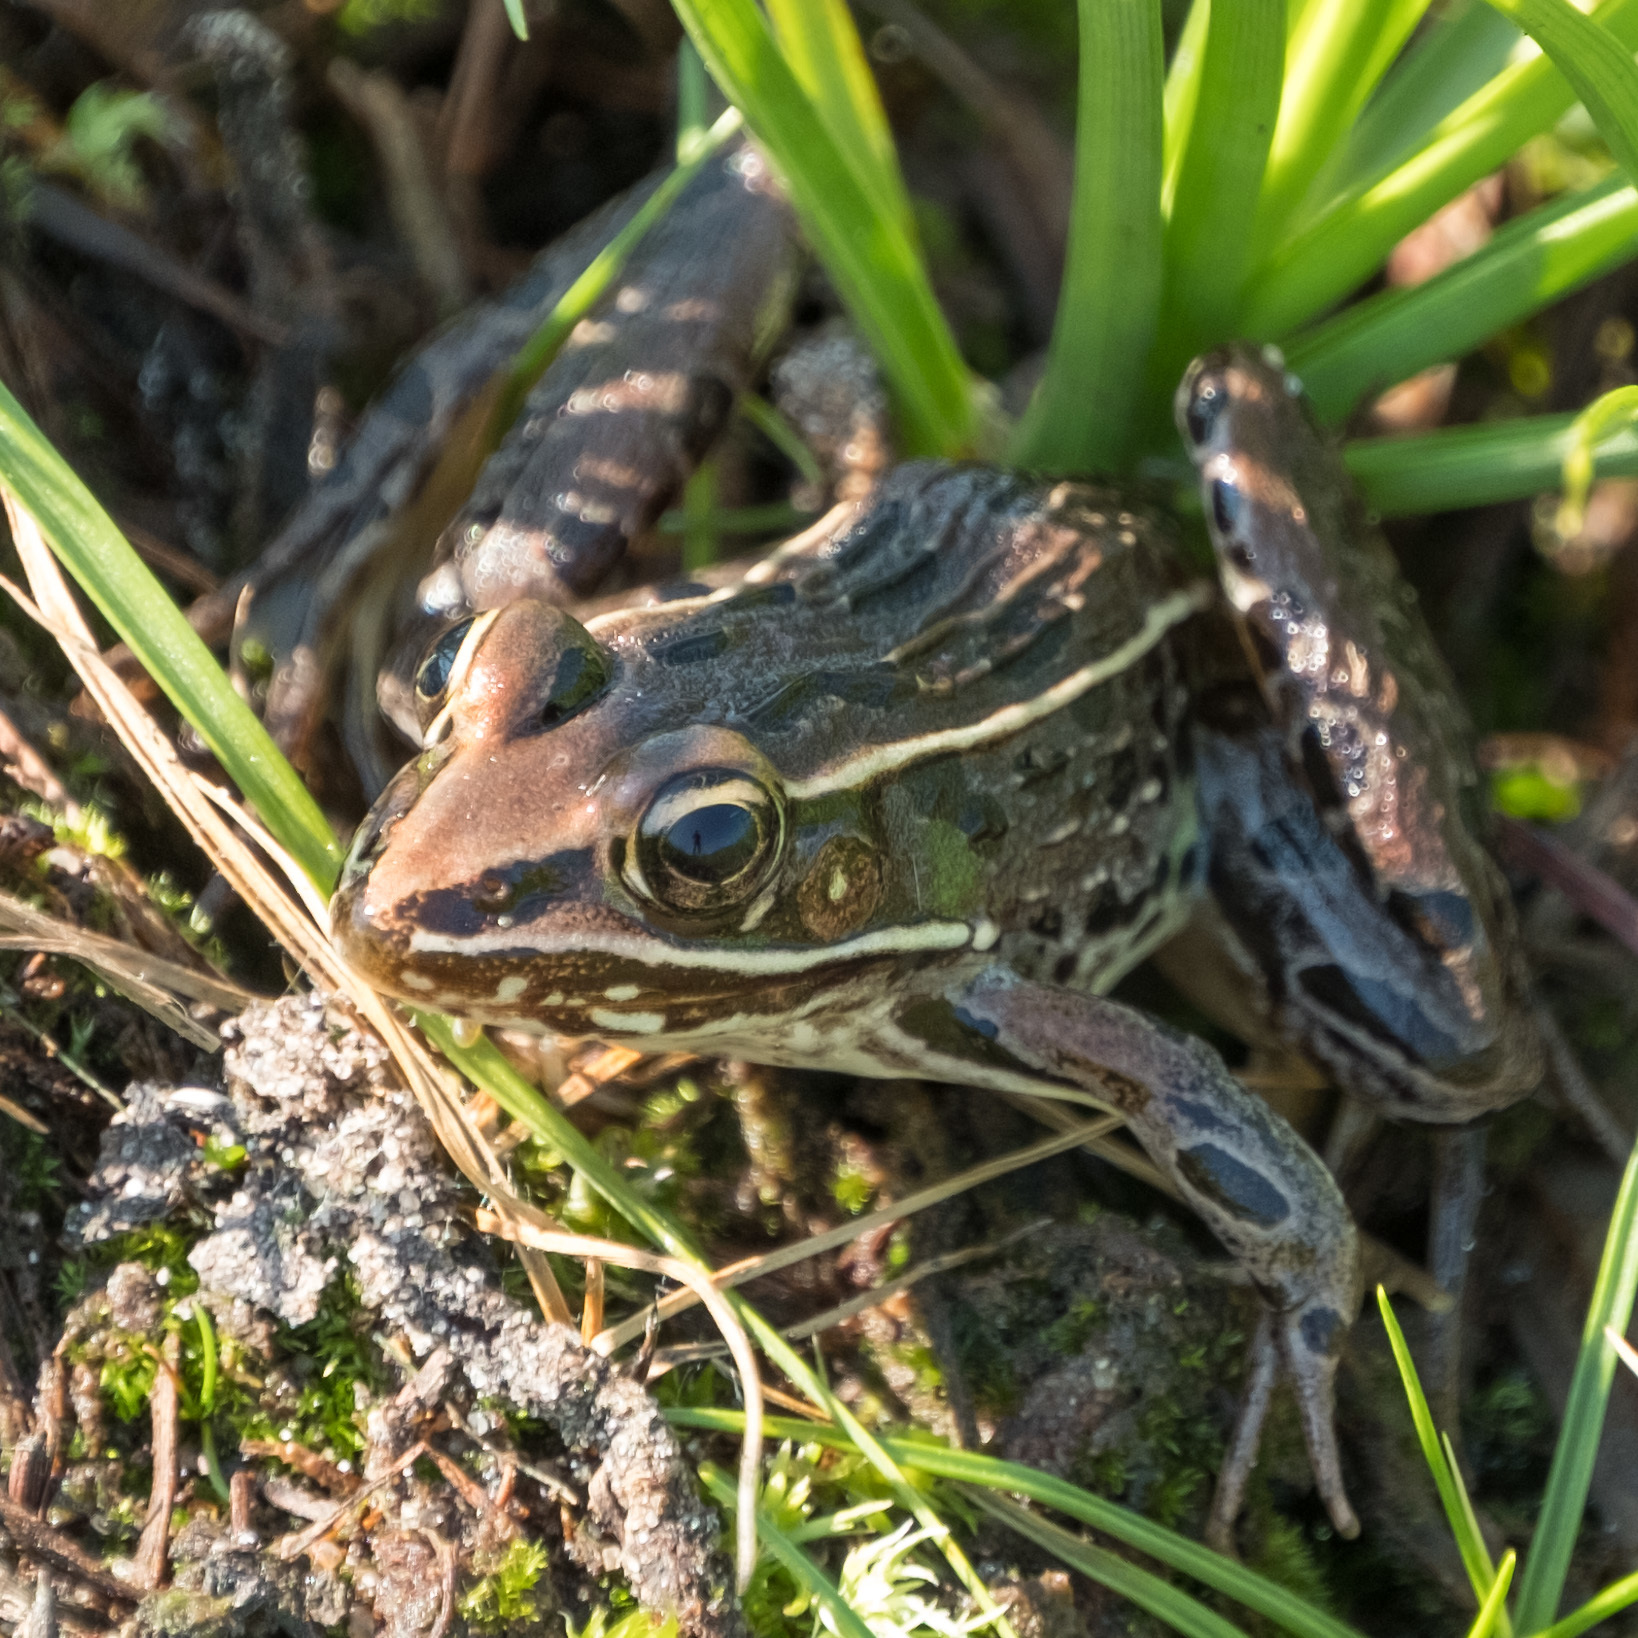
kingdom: Animalia
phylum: Chordata
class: Amphibia
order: Anura
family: Ranidae
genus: Lithobates
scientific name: Lithobates sphenocephalus
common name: Southern leopard frog
